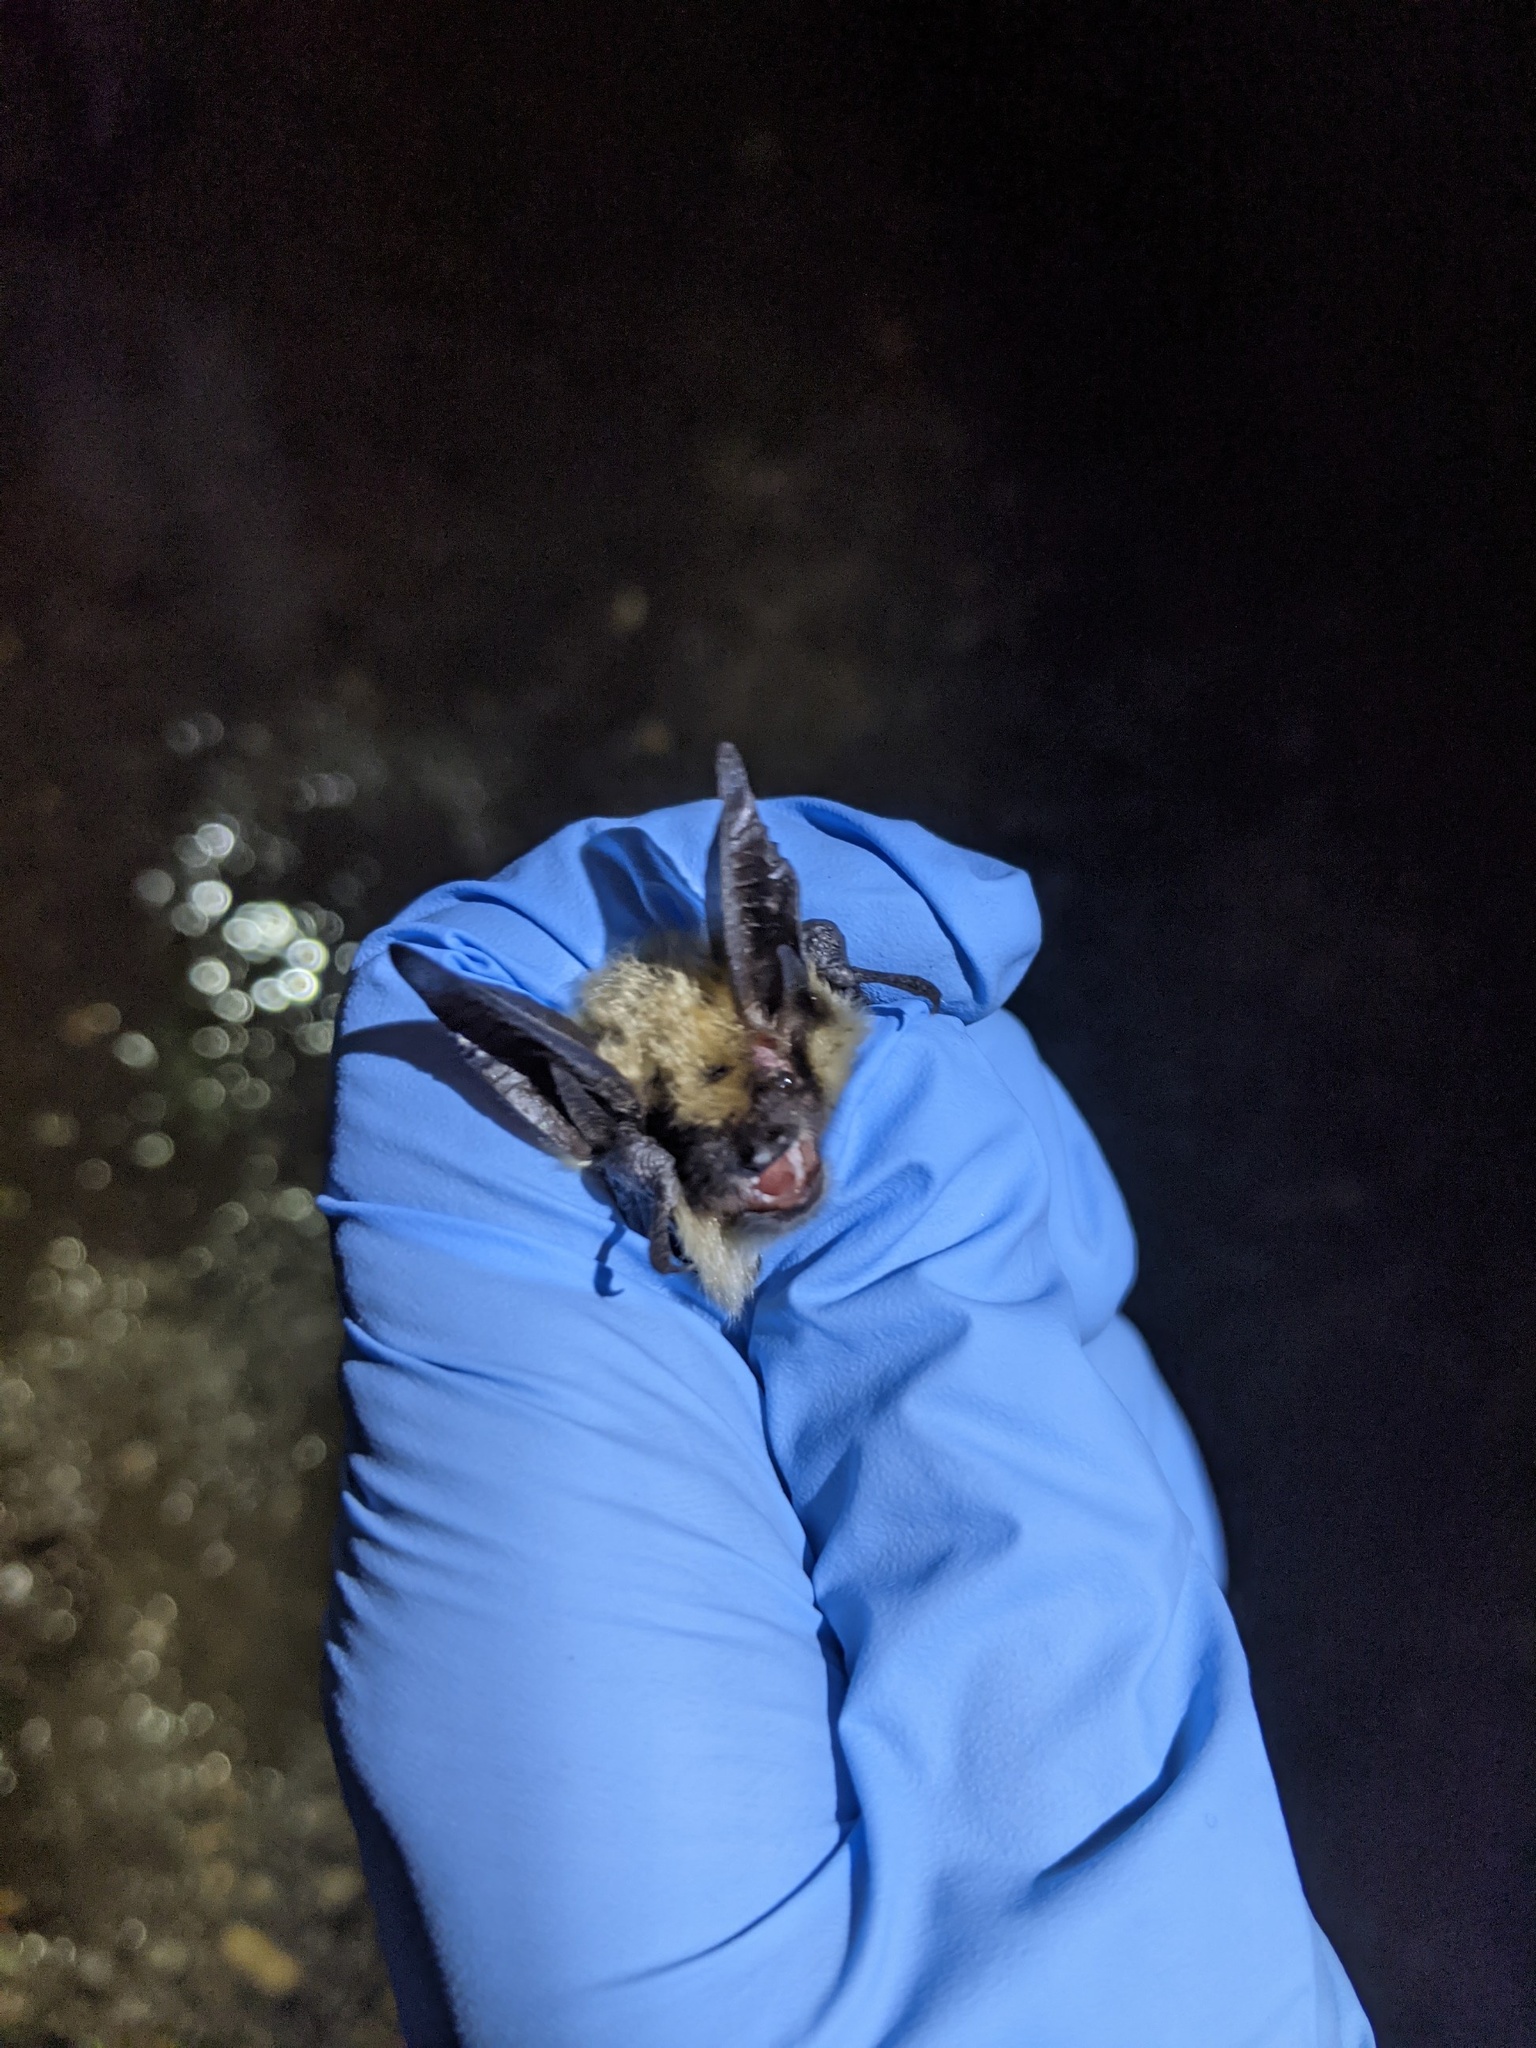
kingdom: Animalia
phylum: Chordata
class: Mammalia
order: Chiroptera
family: Vespertilionidae
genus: Myotis
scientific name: Myotis evotis
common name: Long-eared myotis
